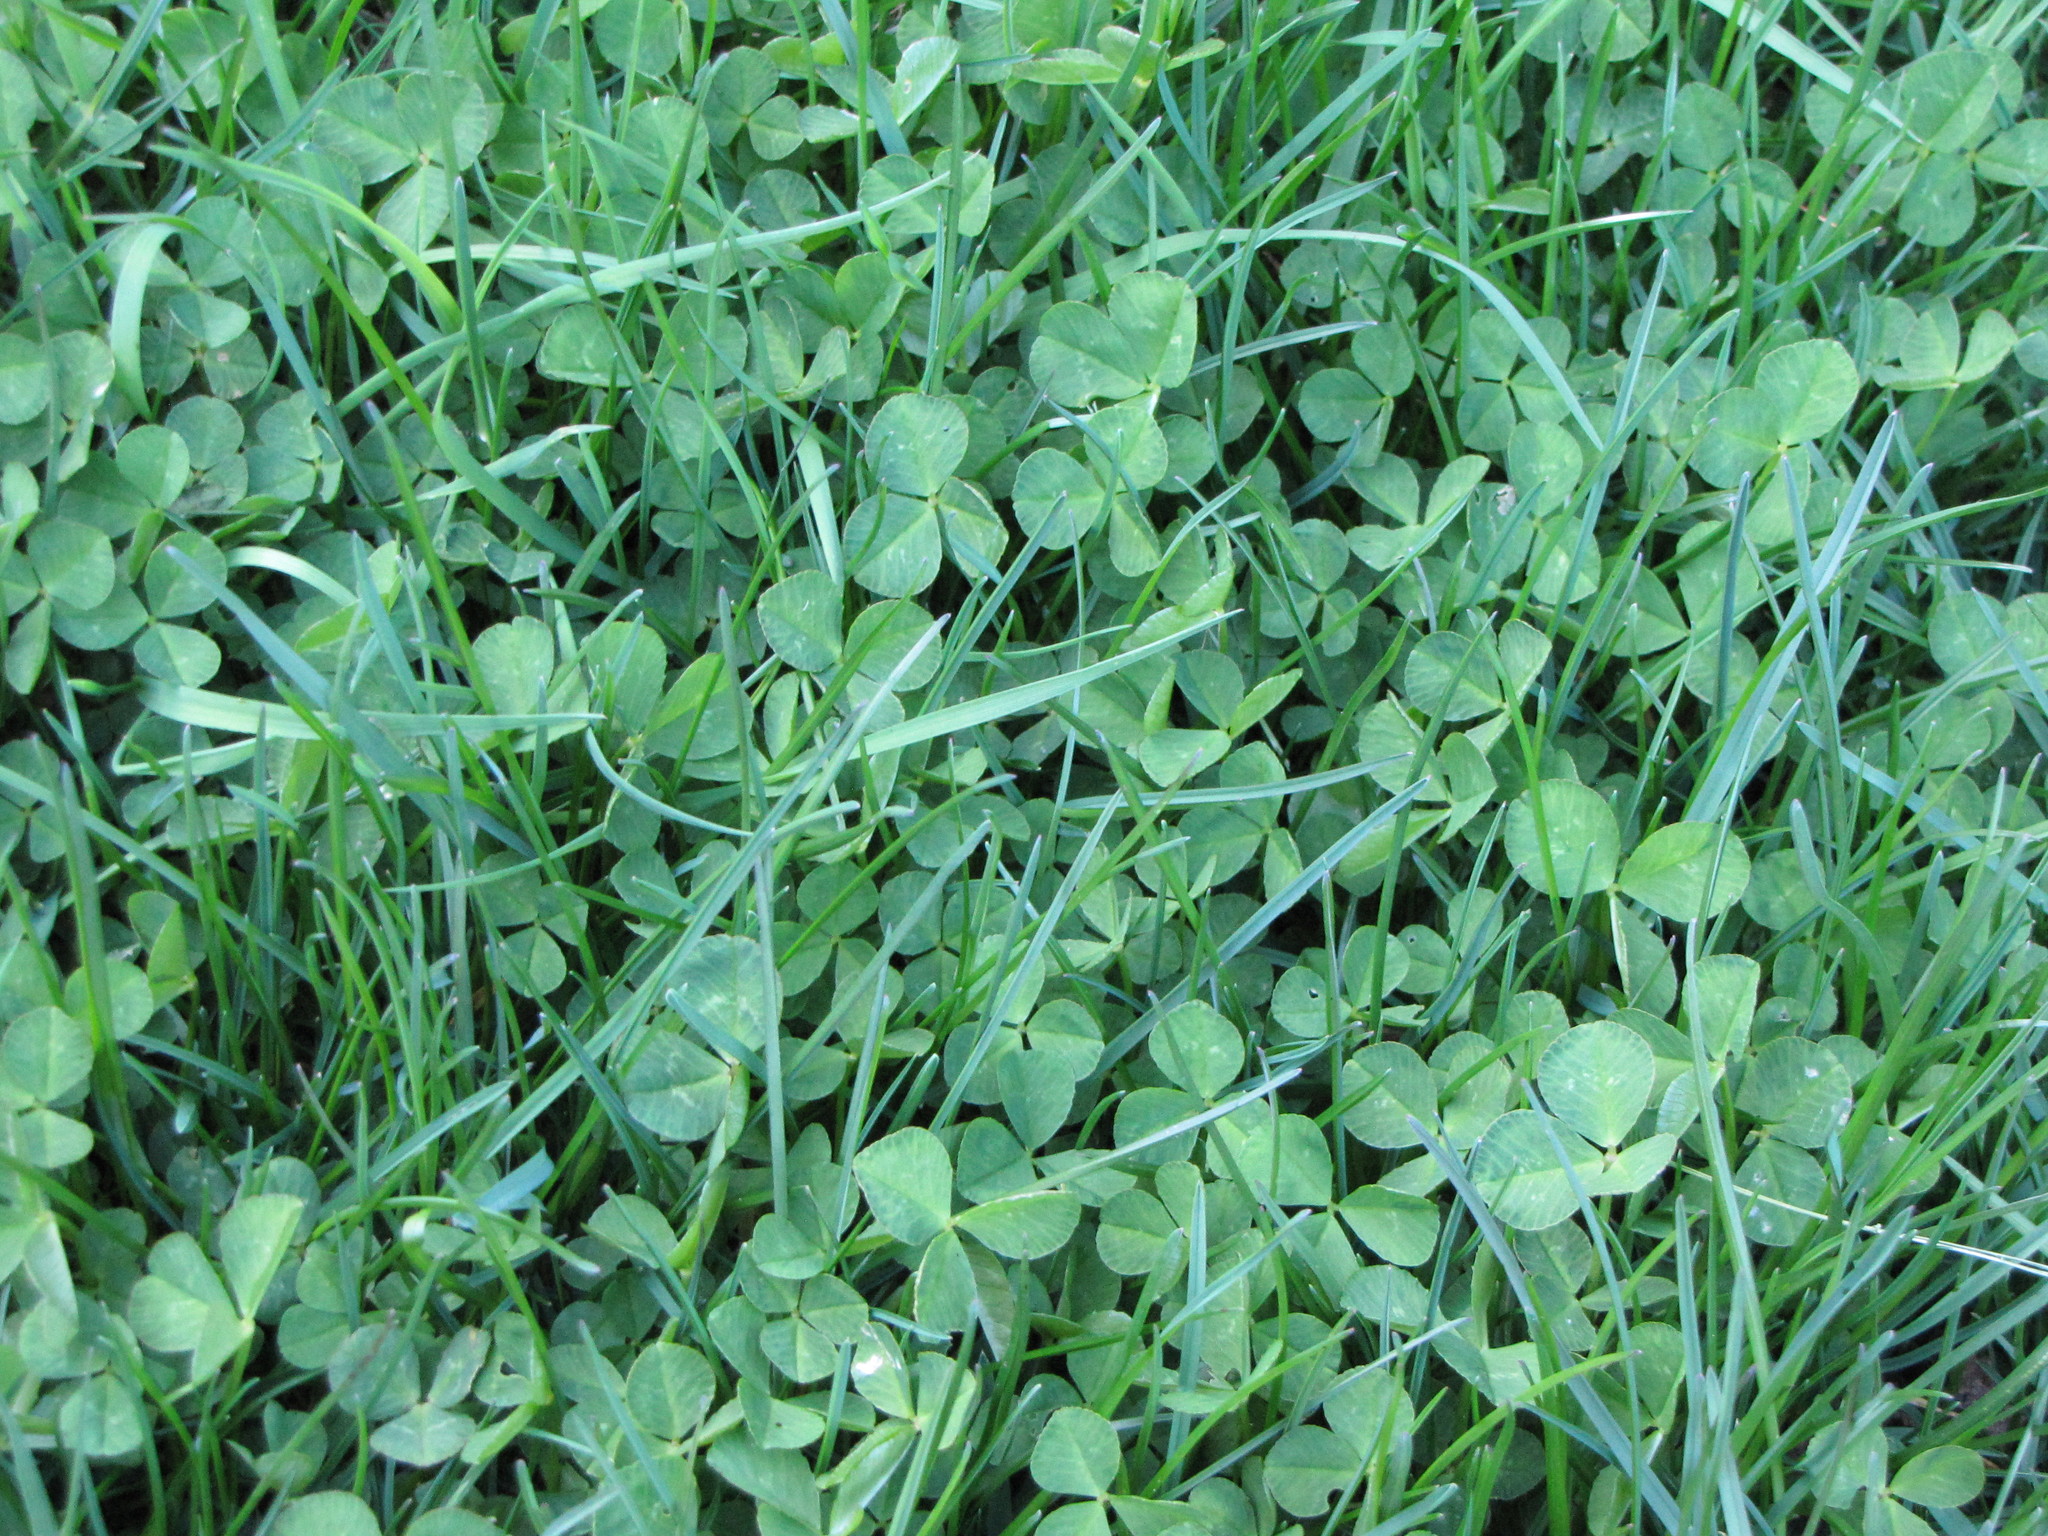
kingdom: Plantae
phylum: Tracheophyta
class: Magnoliopsida
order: Fabales
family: Fabaceae
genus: Trifolium
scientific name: Trifolium repens
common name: White clover
